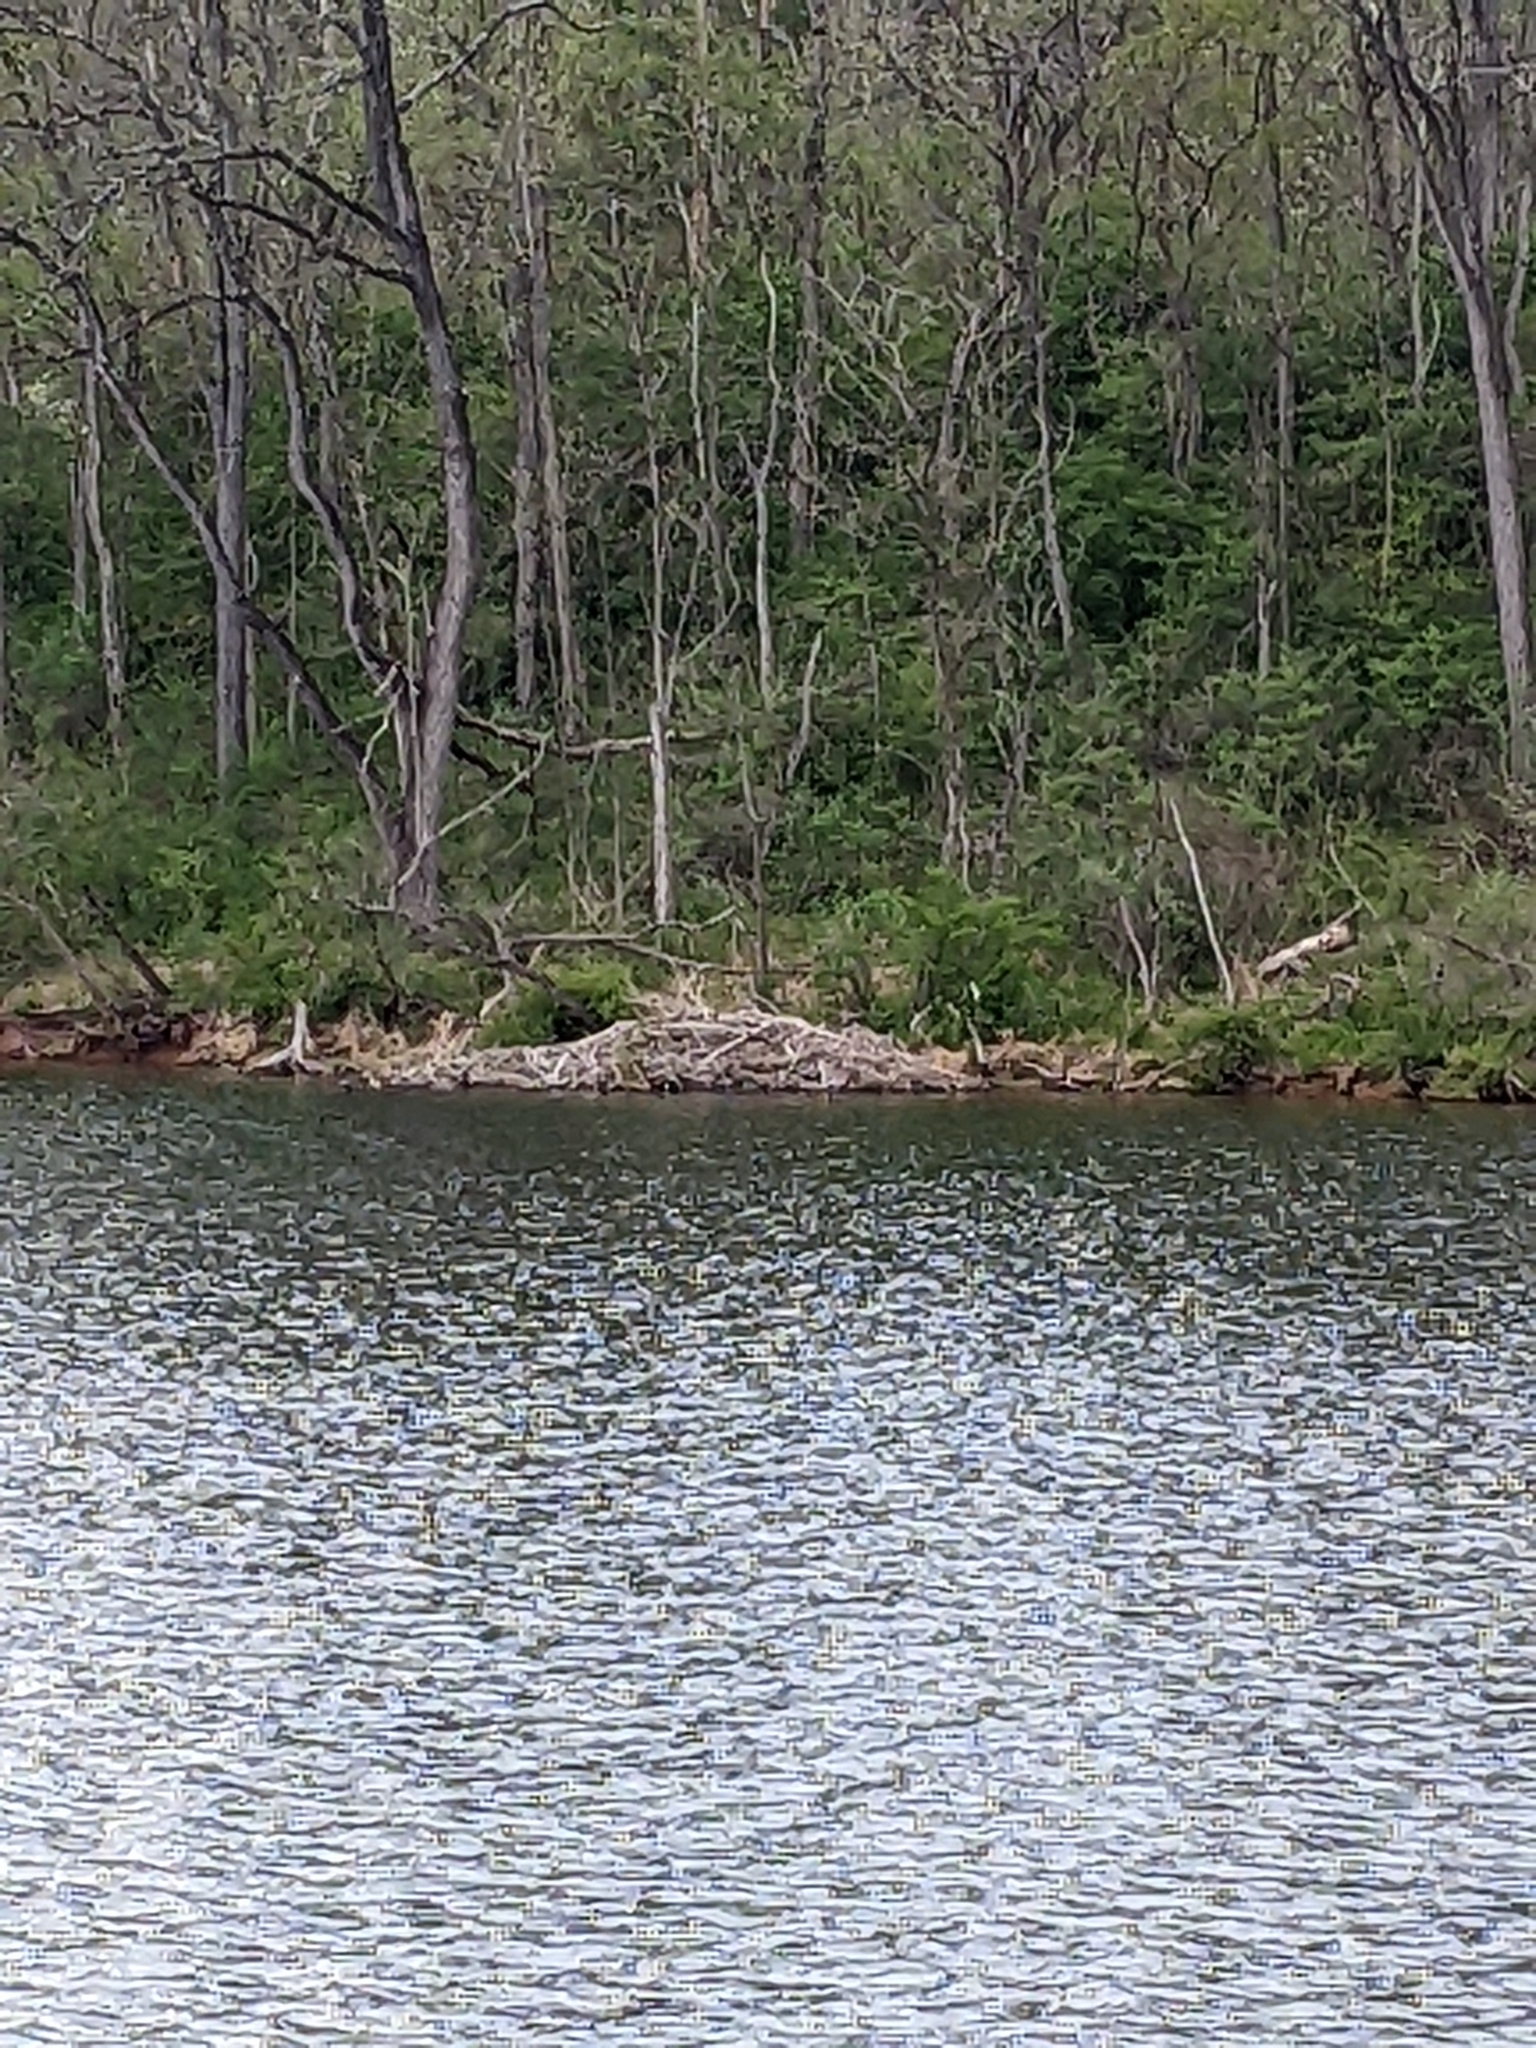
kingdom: Animalia
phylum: Chordata
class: Mammalia
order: Rodentia
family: Castoridae
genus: Castor
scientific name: Castor canadensis
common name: American beaver
